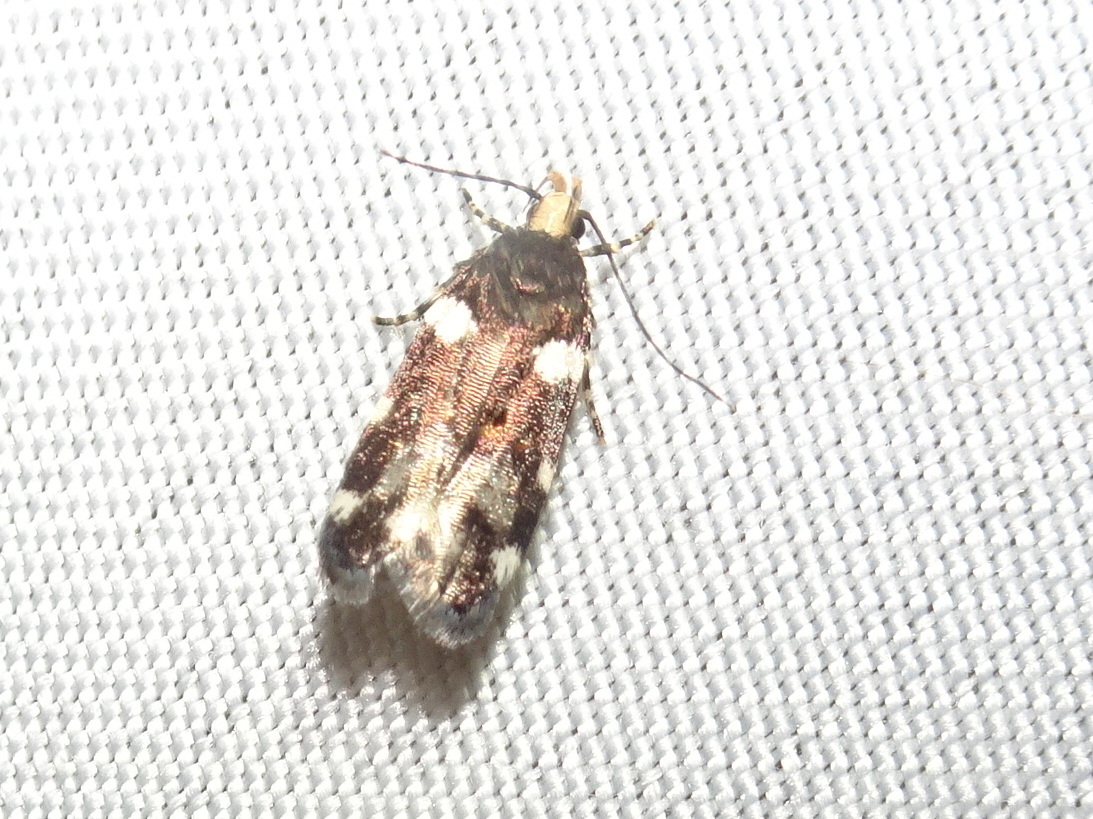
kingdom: Animalia
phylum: Arthropoda
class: Insecta
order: Lepidoptera
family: Gelechiidae
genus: Fascista
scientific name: Fascista cercerisella
